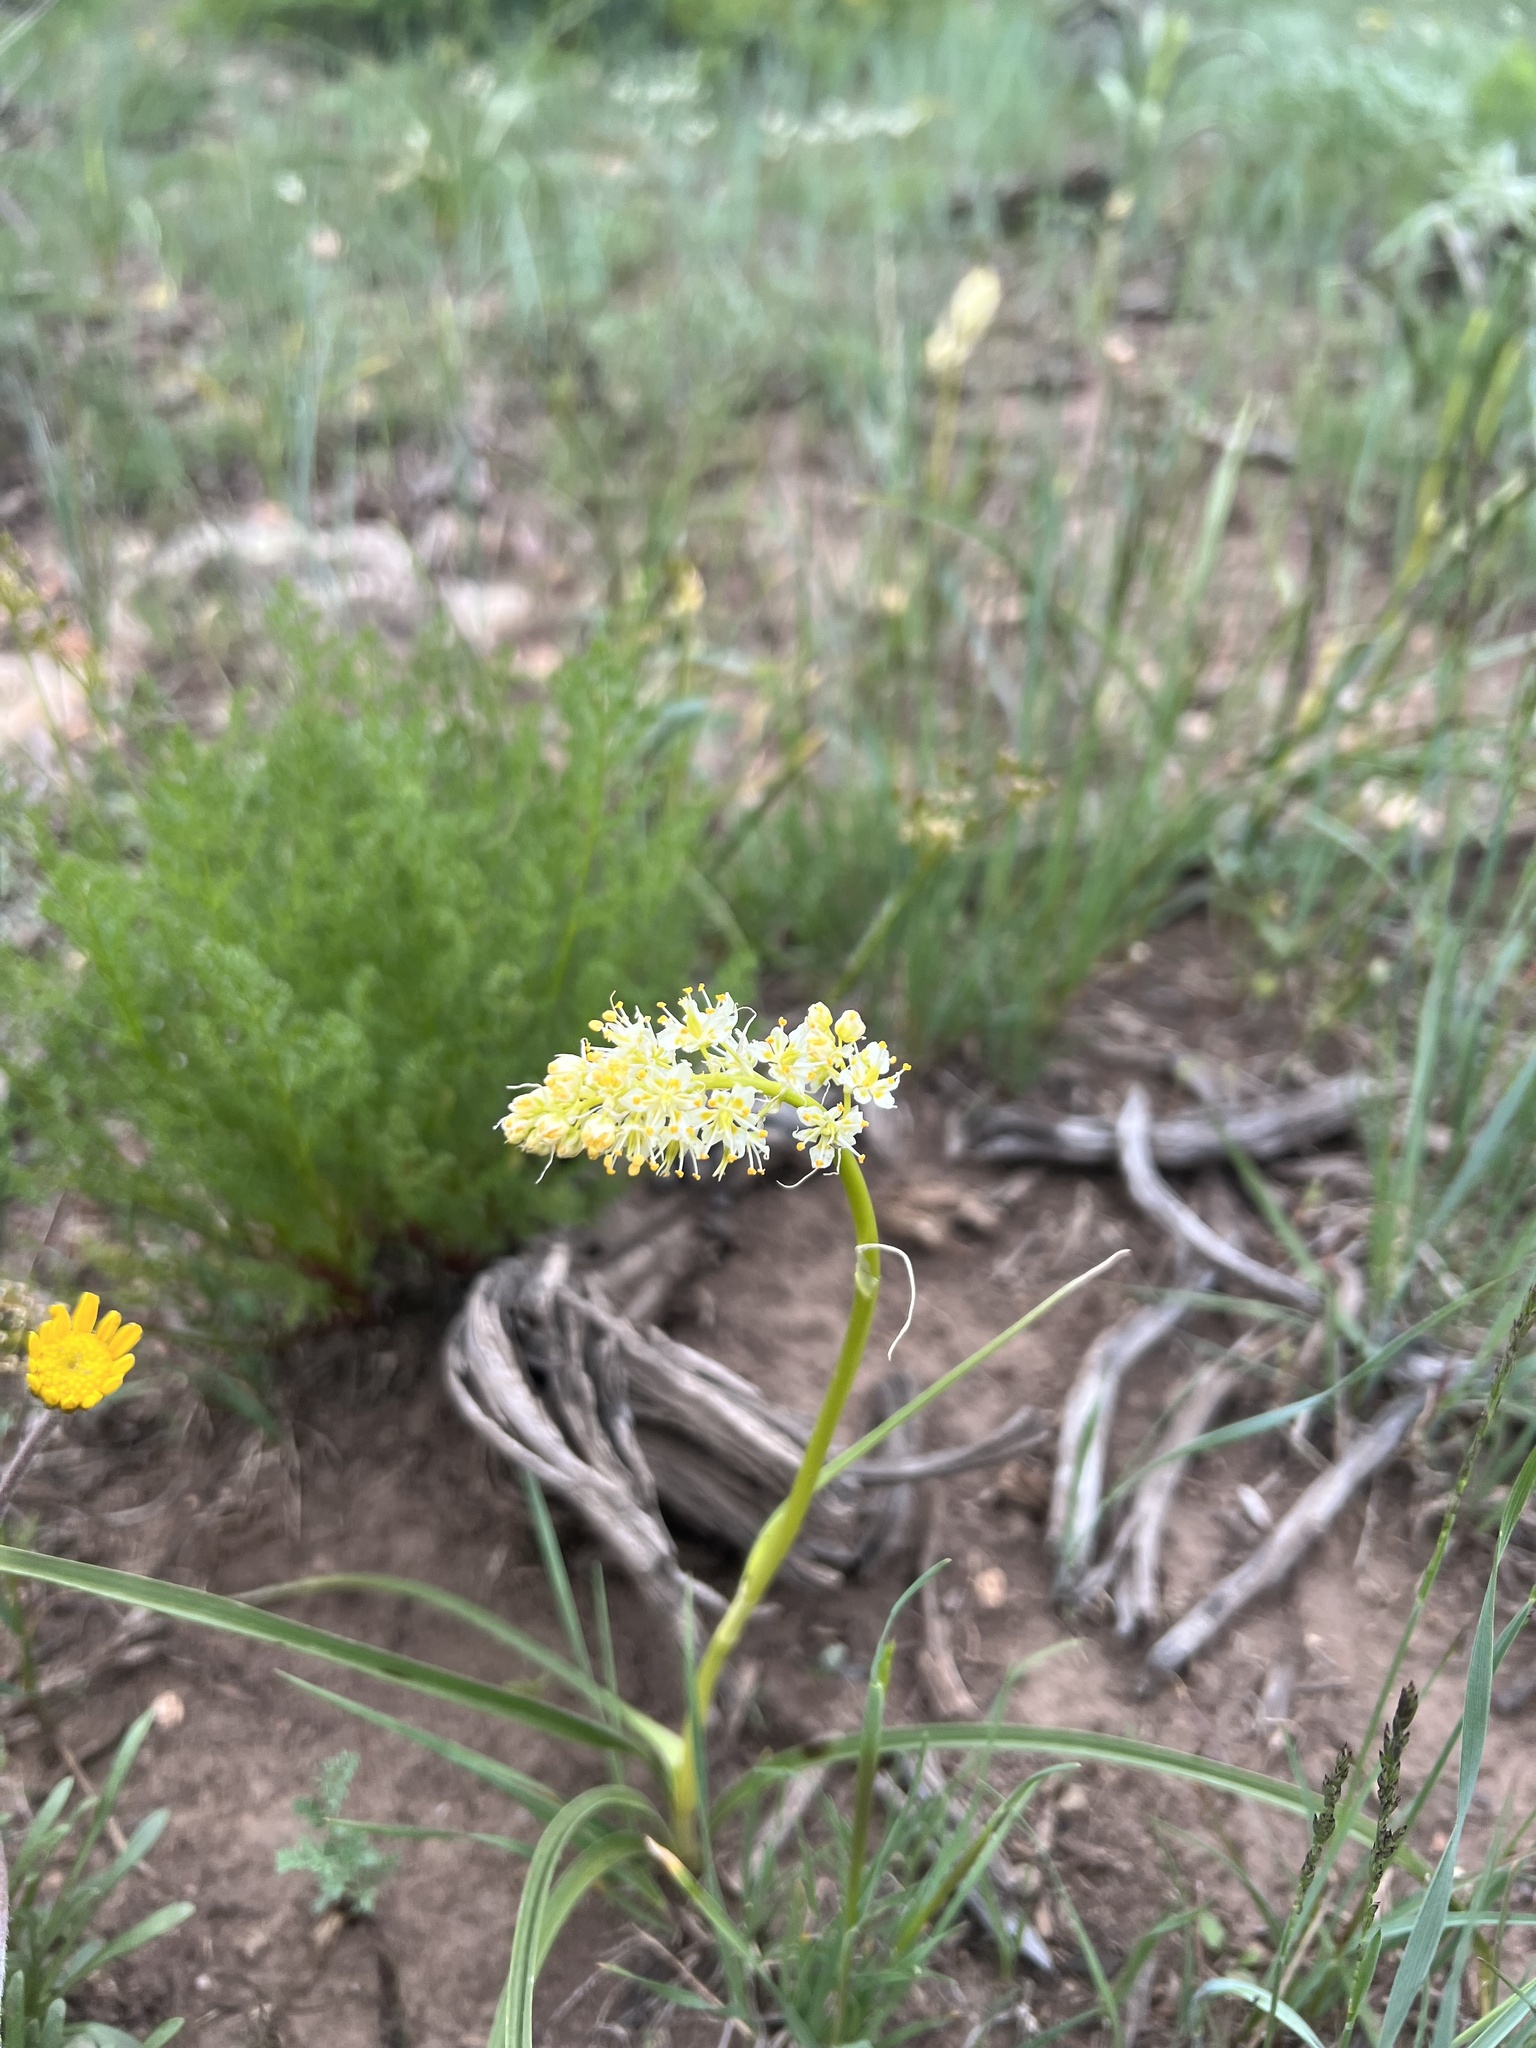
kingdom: Plantae
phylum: Tracheophyta
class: Liliopsida
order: Liliales
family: Melanthiaceae
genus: Toxicoscordion
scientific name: Toxicoscordion paniculatum
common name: Foothill death camas
